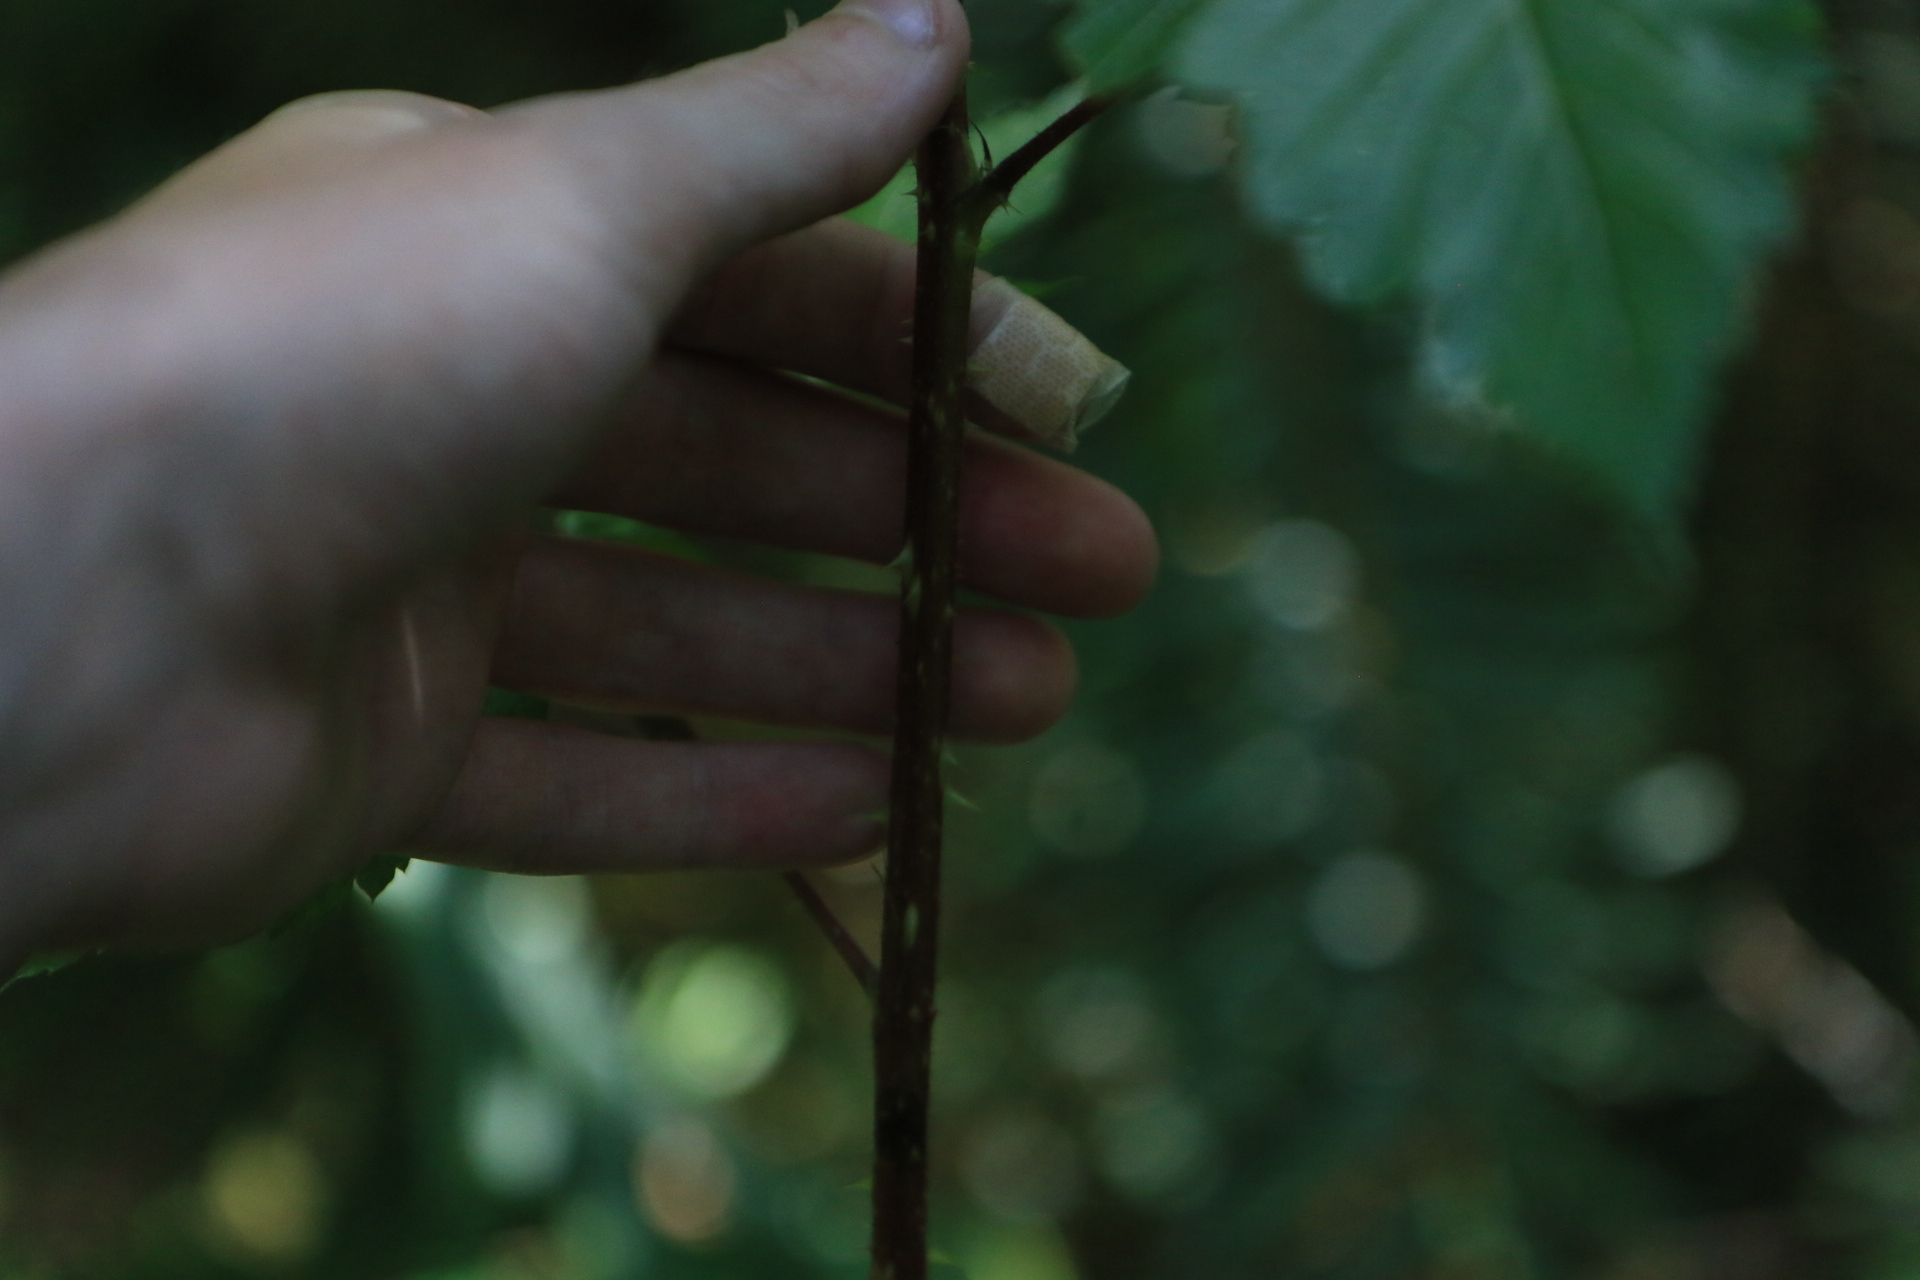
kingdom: Plantae
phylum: Tracheophyta
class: Magnoliopsida
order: Rosales
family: Rosaceae
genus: Rubus
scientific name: Rubus spectabilis
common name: Salmonberry
